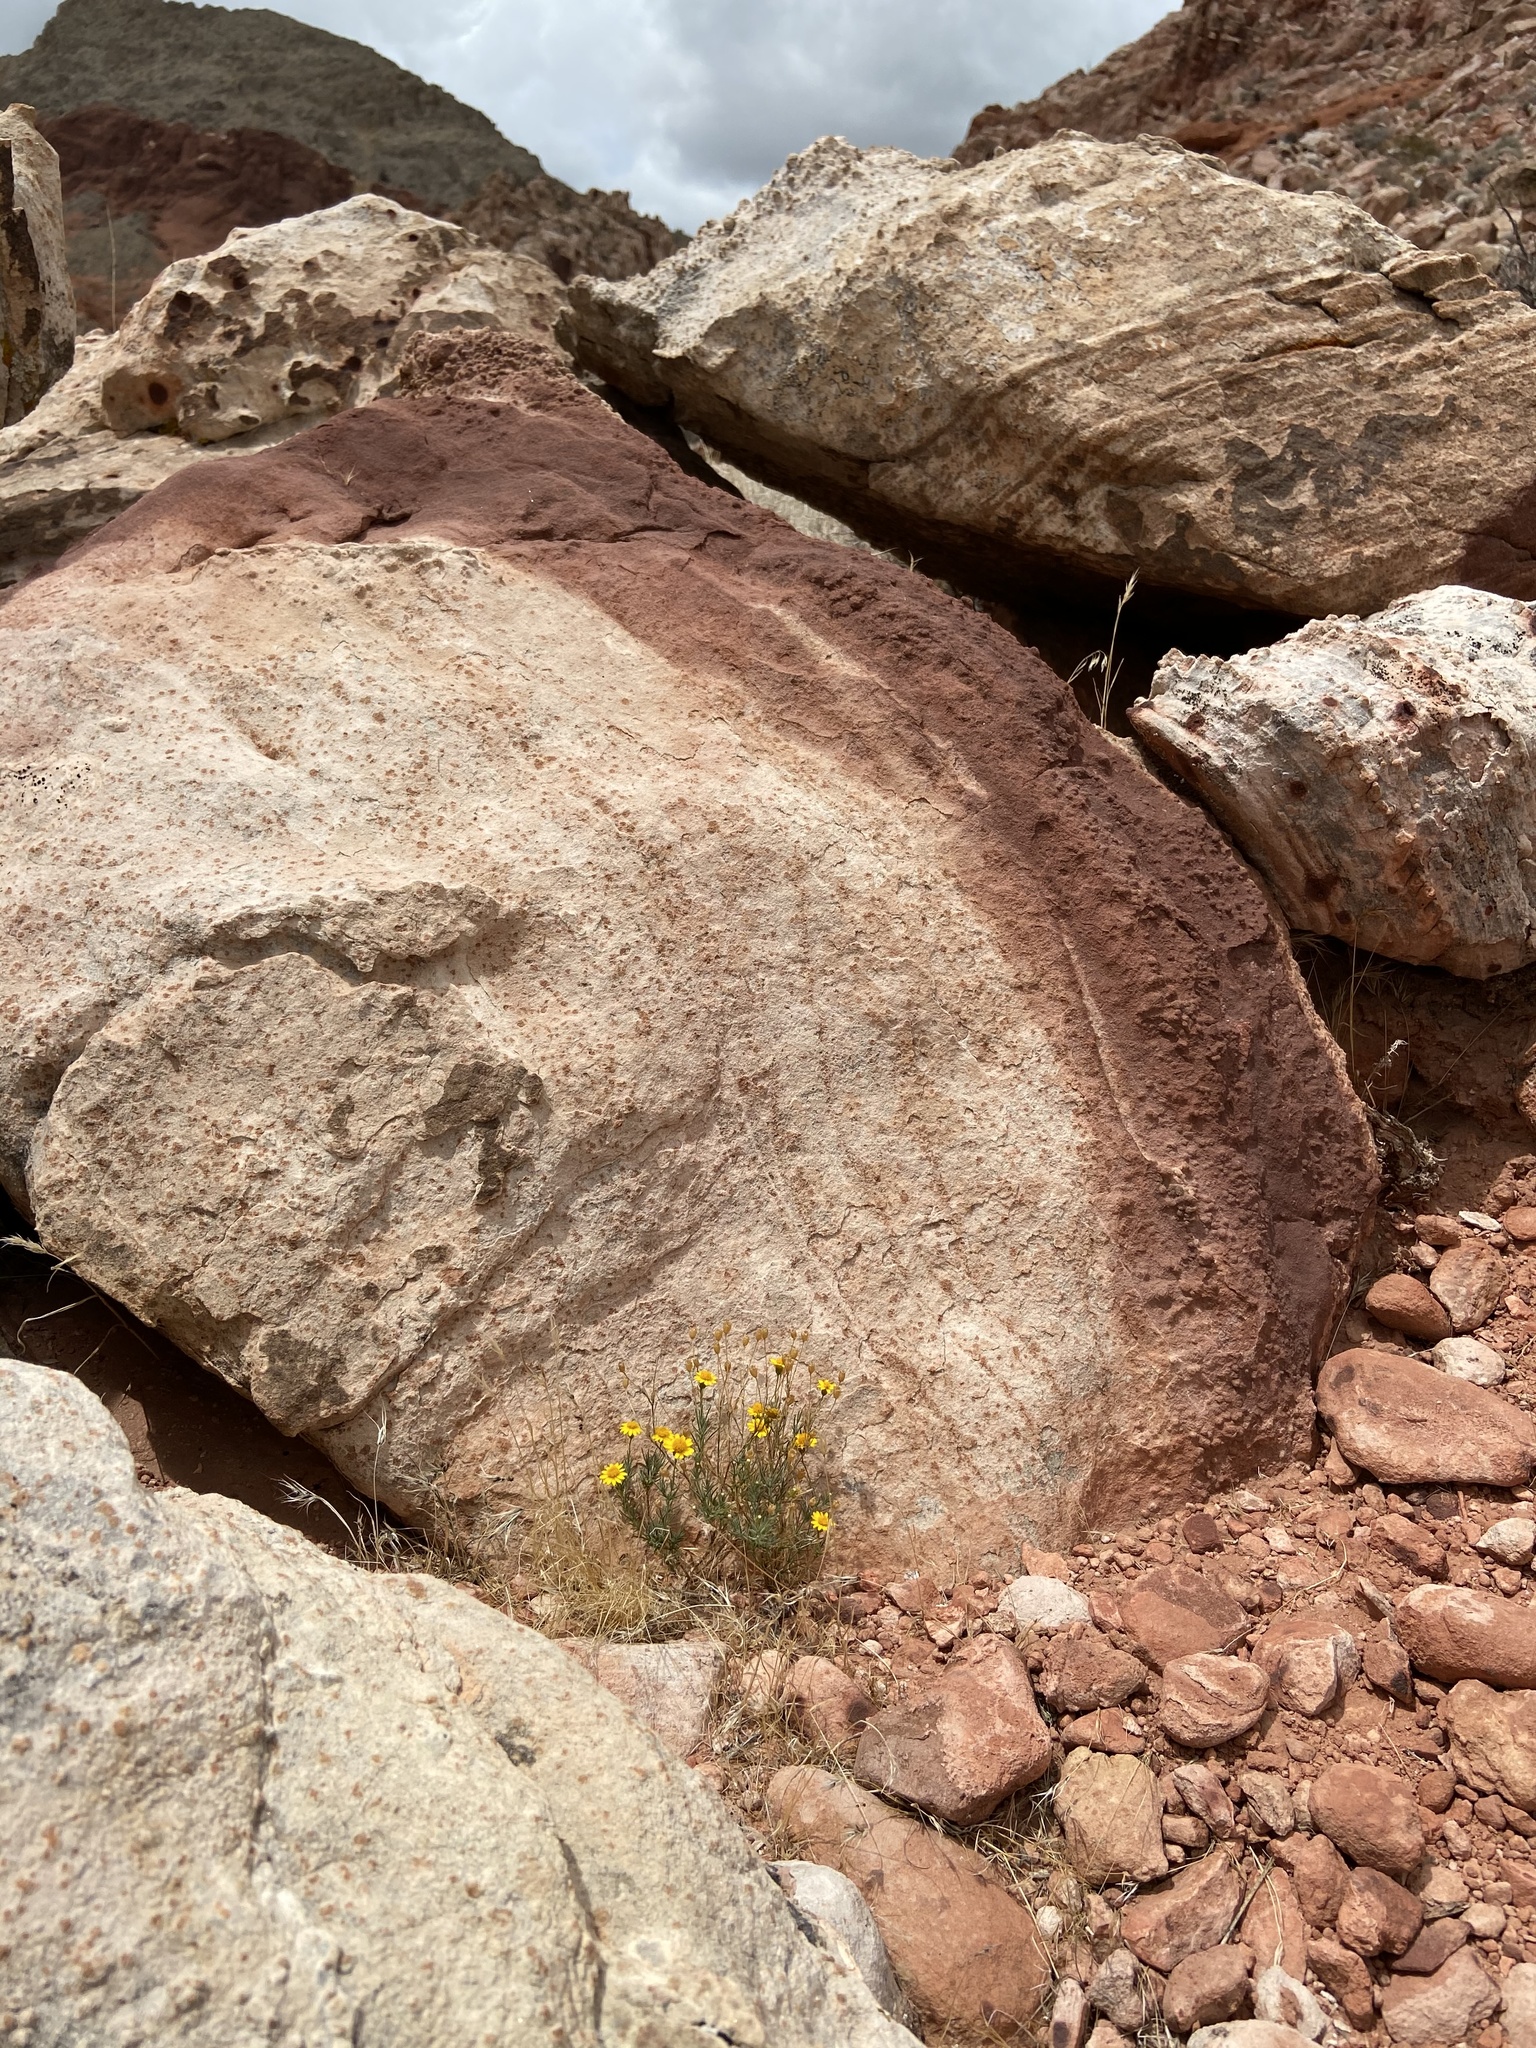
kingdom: Plantae
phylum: Tracheophyta
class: Magnoliopsida
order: Asterales
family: Asteraceae
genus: Thymophylla
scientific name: Thymophylla pentachaeta
